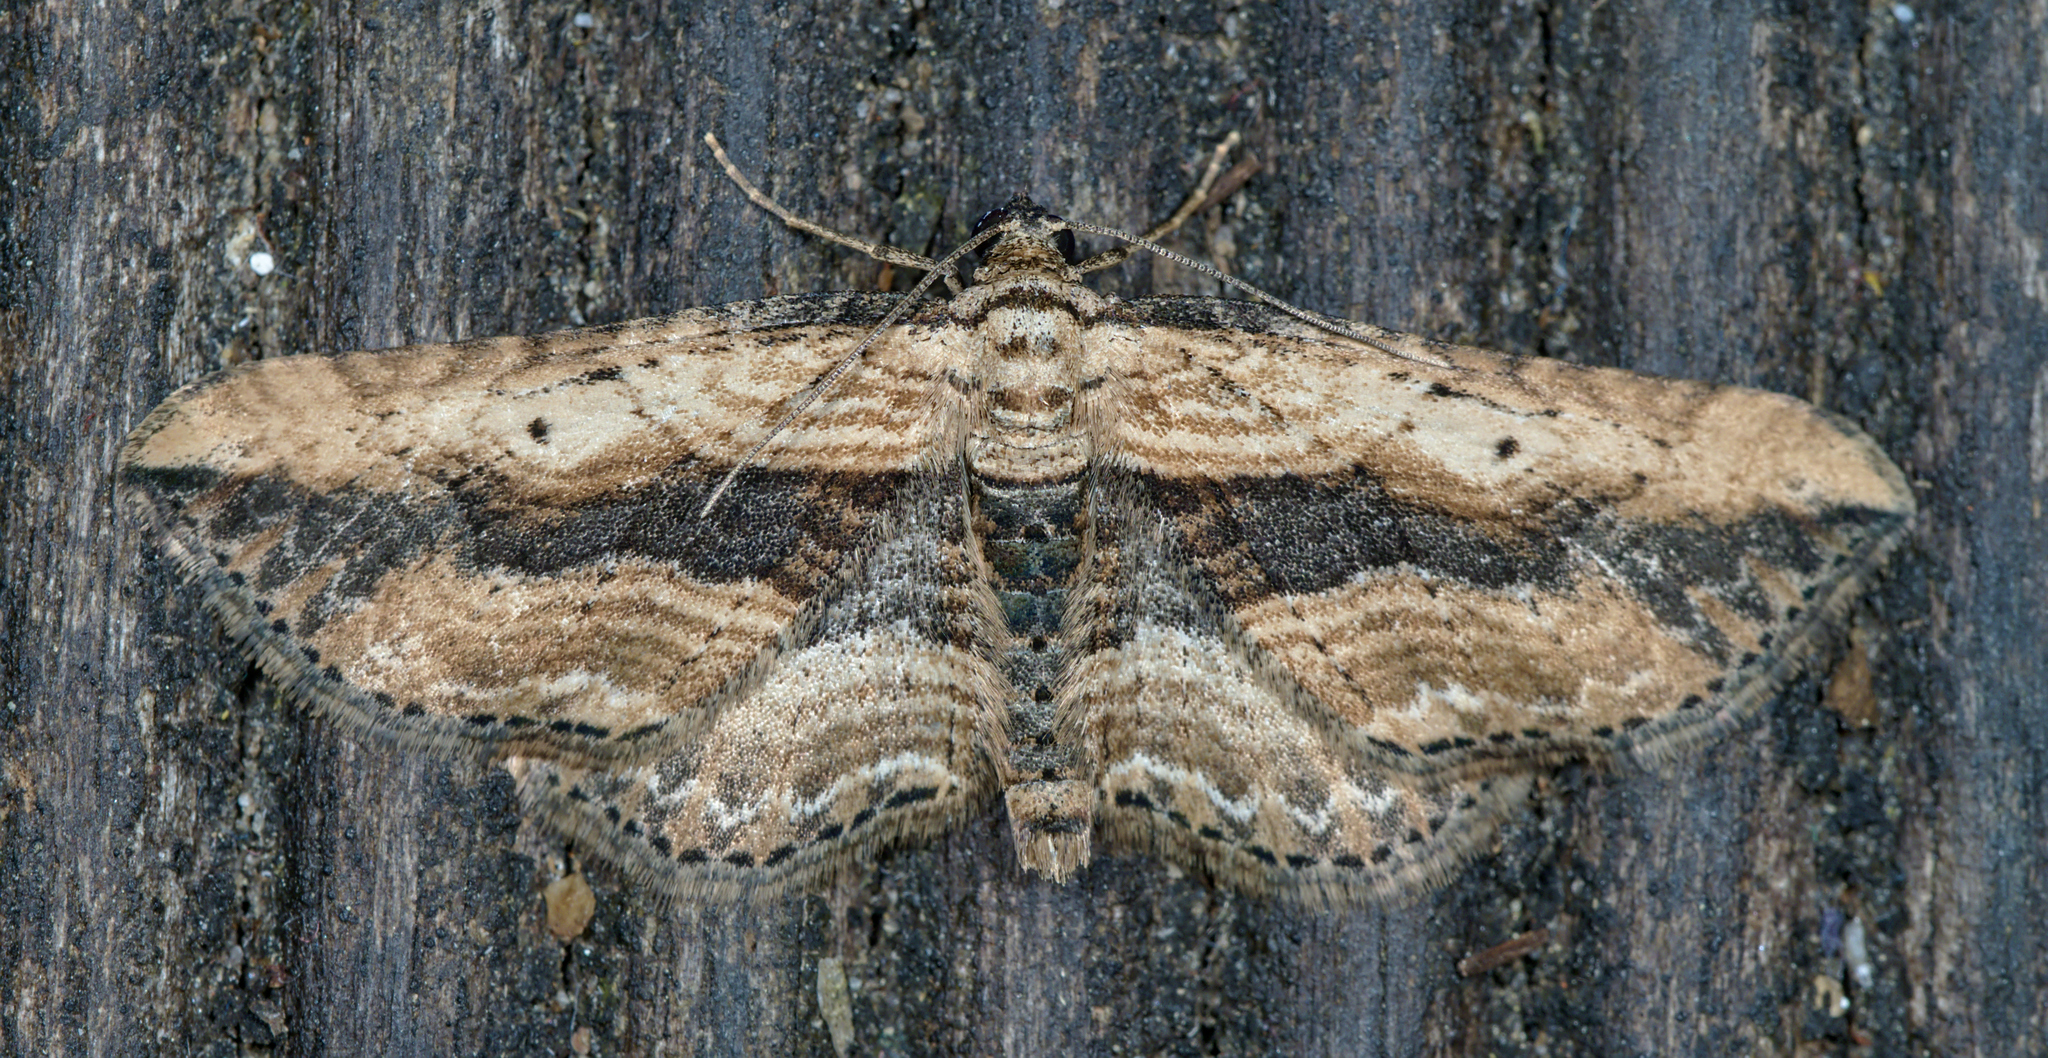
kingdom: Animalia
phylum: Arthropoda
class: Insecta
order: Lepidoptera
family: Geometridae
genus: Horisme
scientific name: Horisme vitalbata
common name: Small waved umber
